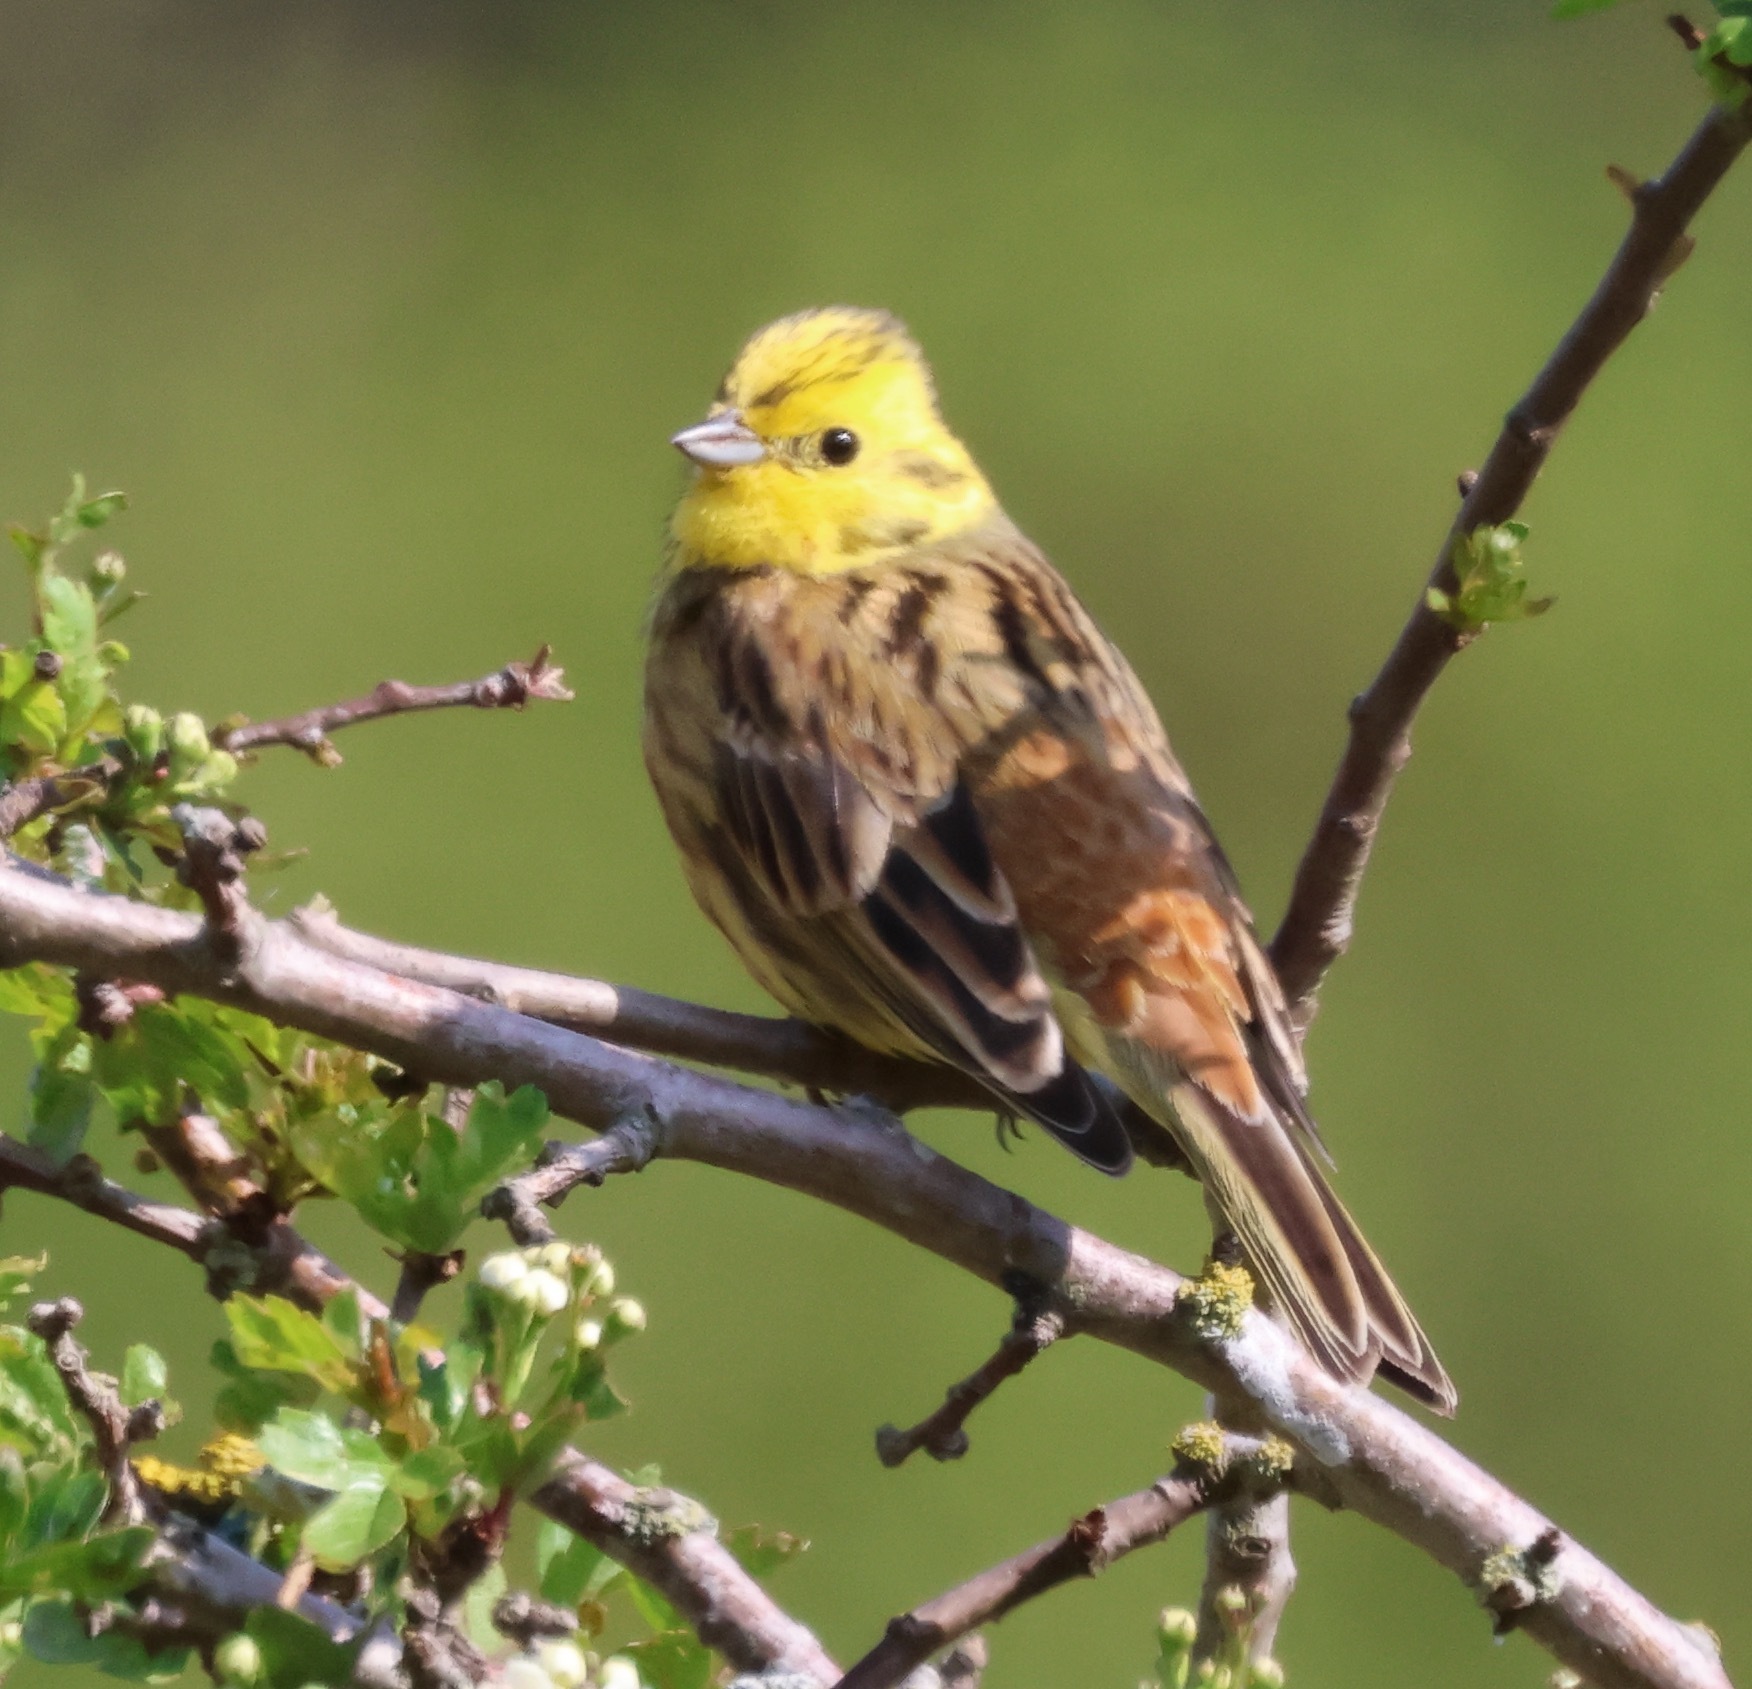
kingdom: Animalia
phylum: Chordata
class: Aves
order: Passeriformes
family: Emberizidae
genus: Emberiza
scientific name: Emberiza citrinella
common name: Yellowhammer
